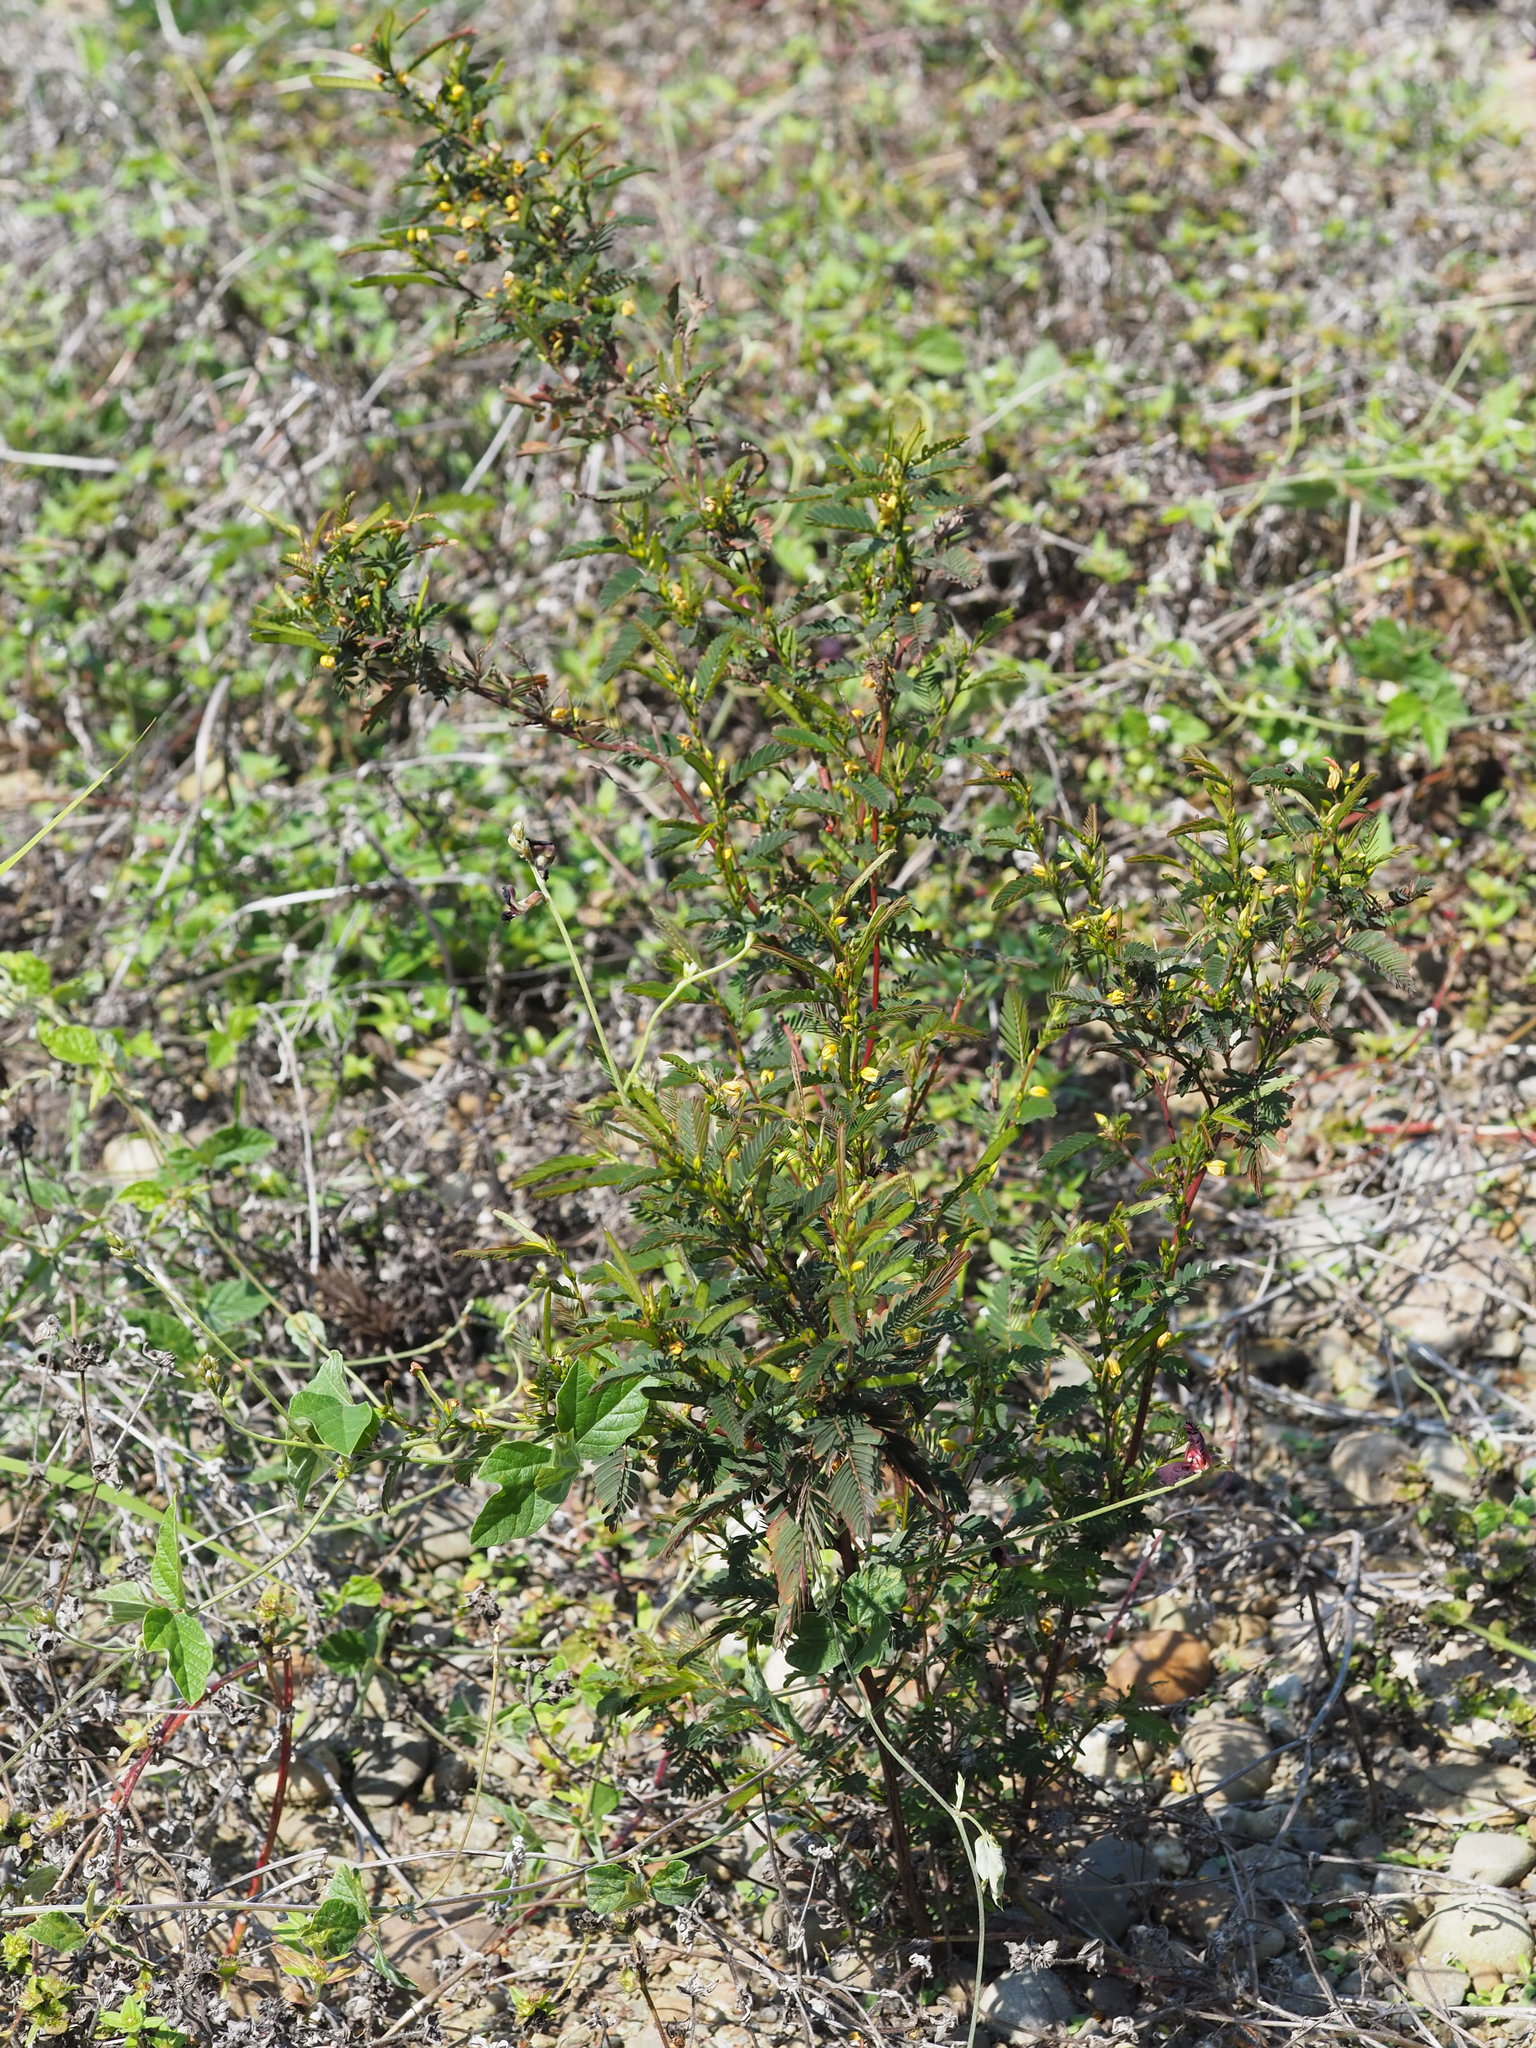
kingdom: Plantae
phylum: Tracheophyta
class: Magnoliopsida
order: Fabales
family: Fabaceae
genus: Chamaecrista
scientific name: Chamaecrista nictitans
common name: Sensitive cassia
